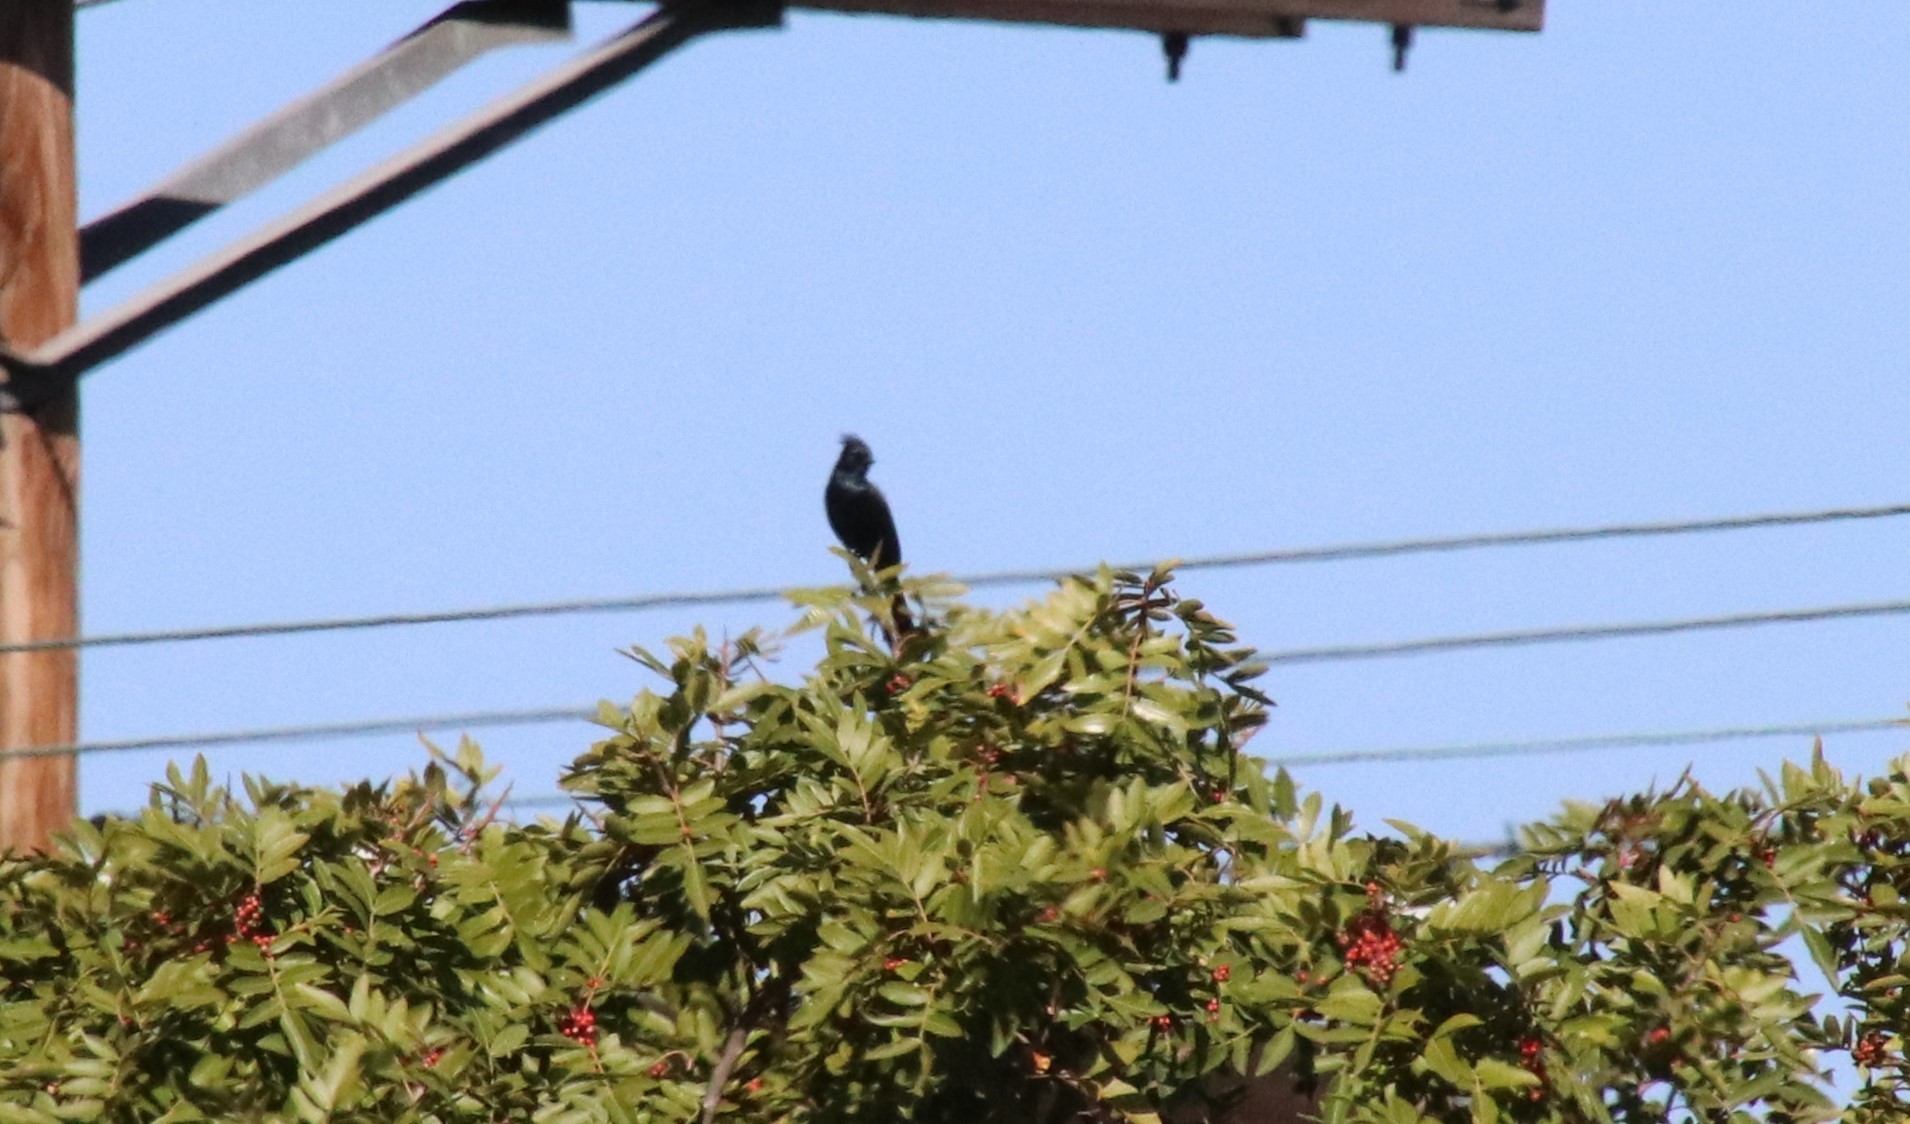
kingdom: Animalia
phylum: Chordata
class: Aves
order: Passeriformes
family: Ptilogonatidae
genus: Phainopepla
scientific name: Phainopepla nitens
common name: Phainopepla
